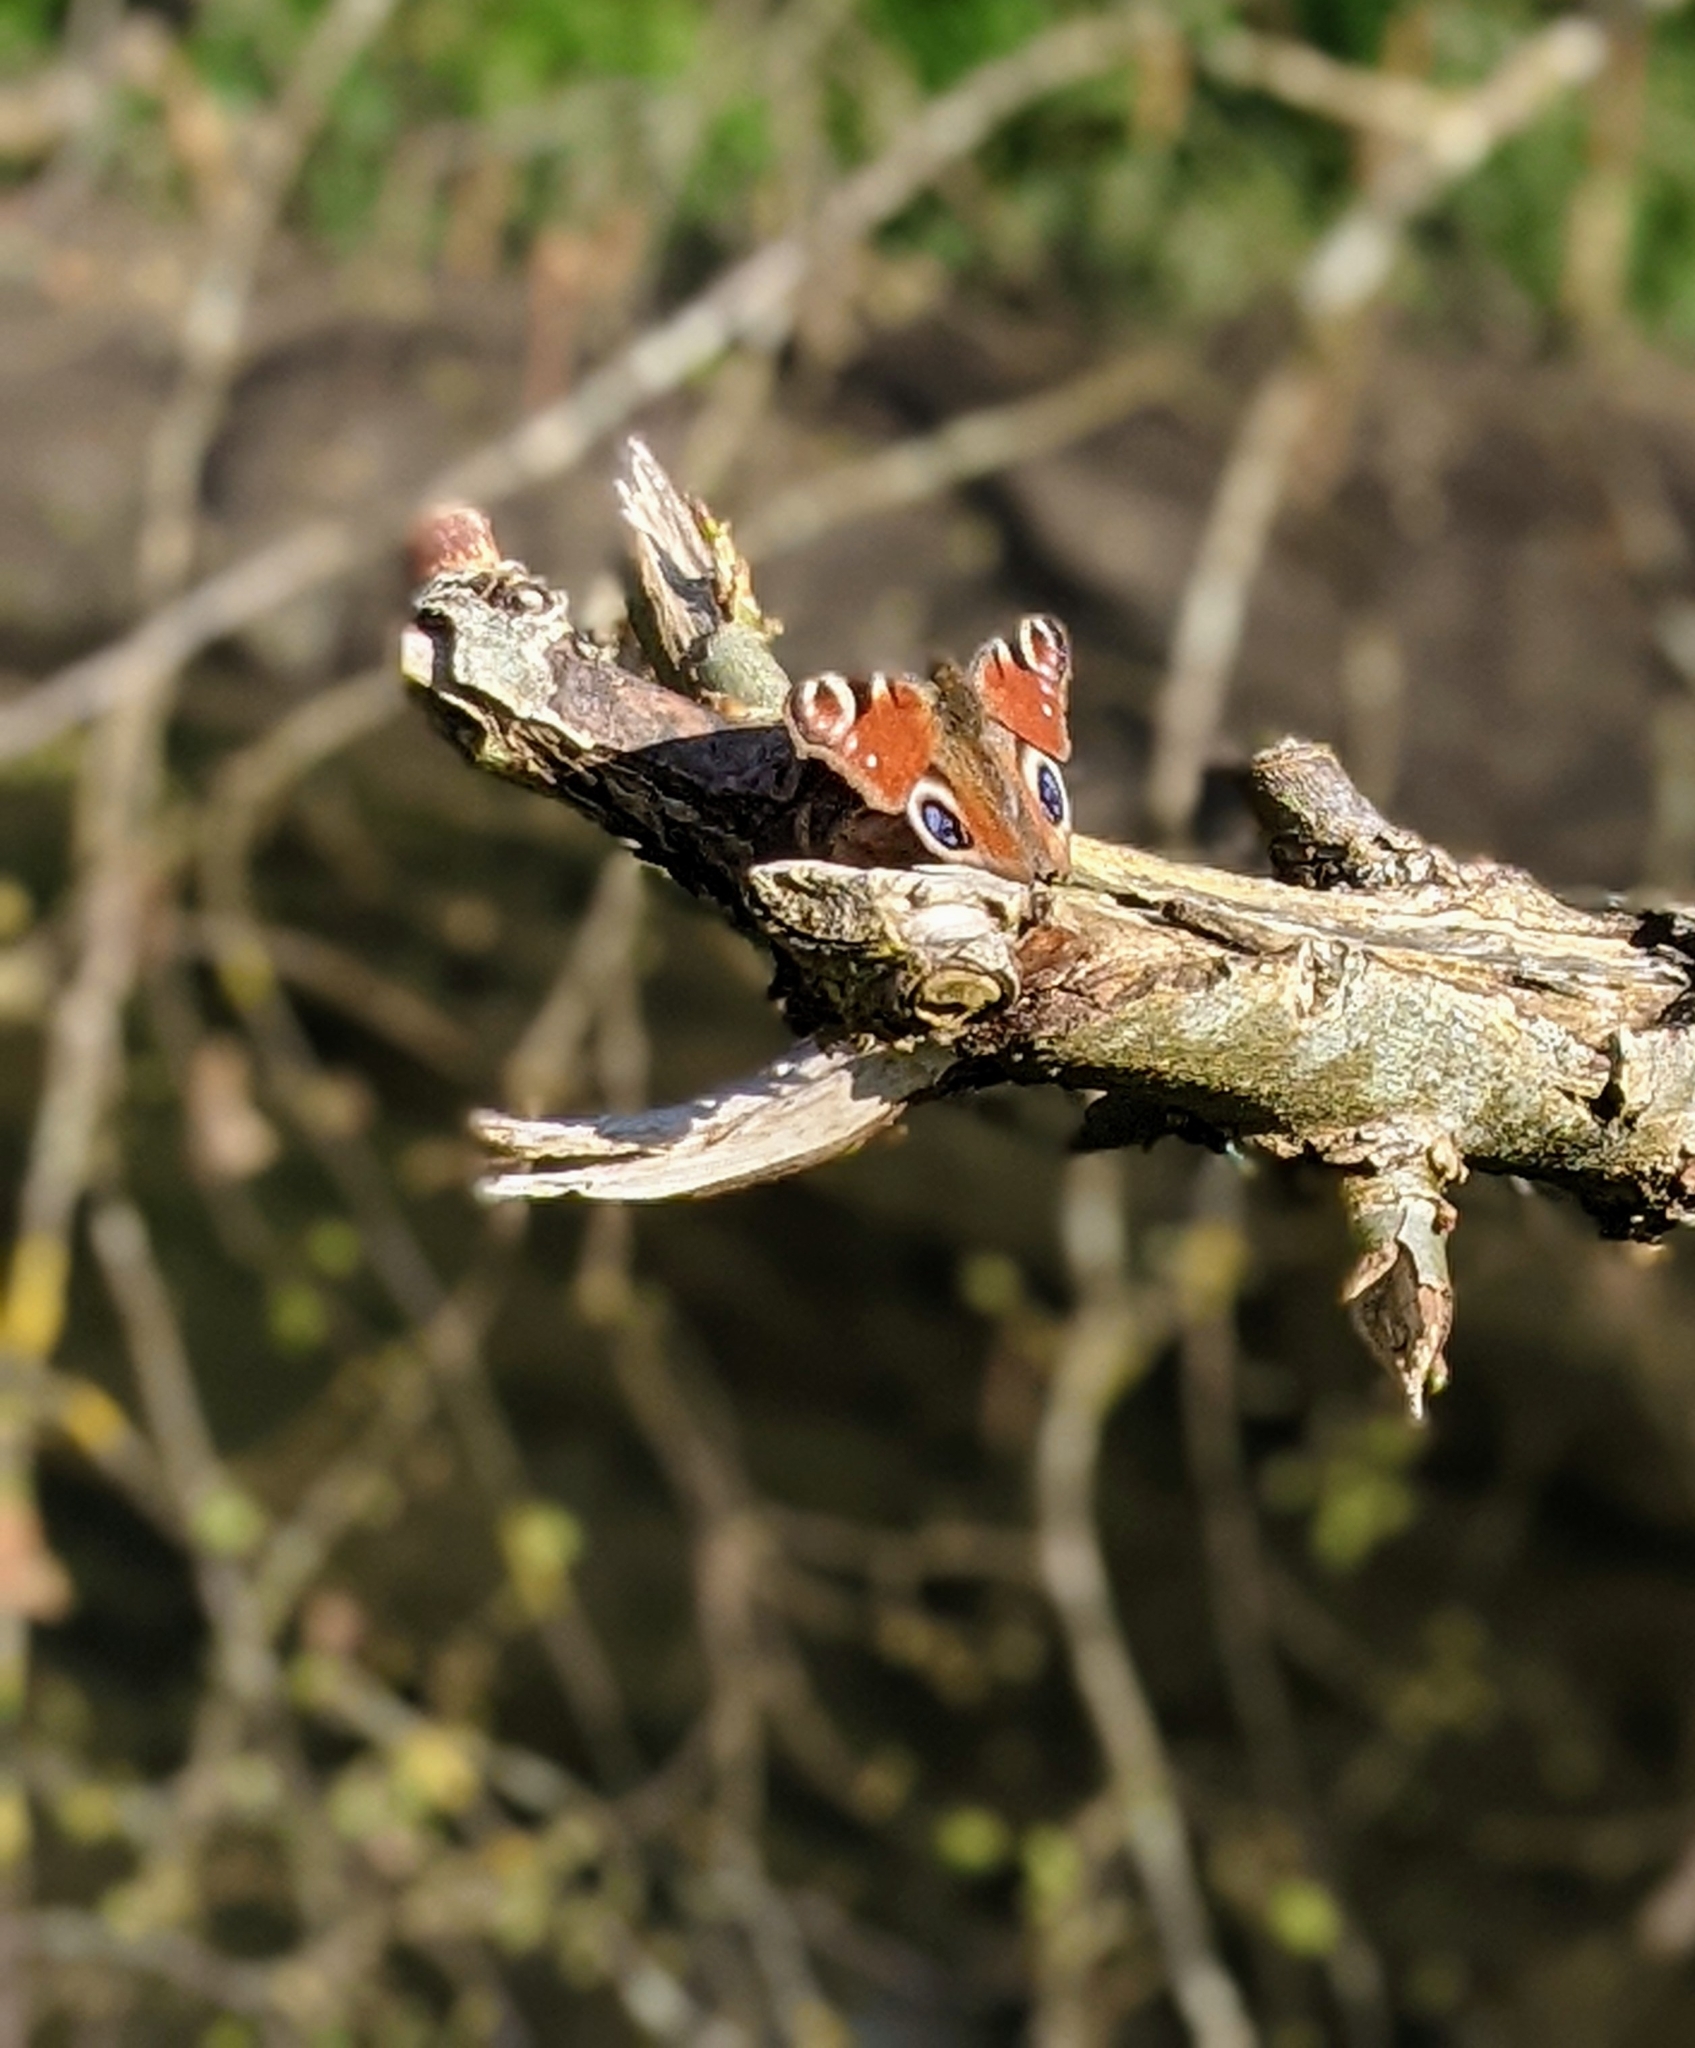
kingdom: Animalia
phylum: Arthropoda
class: Insecta
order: Lepidoptera
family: Nymphalidae
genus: Aglais
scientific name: Aglais io
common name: Peacock
